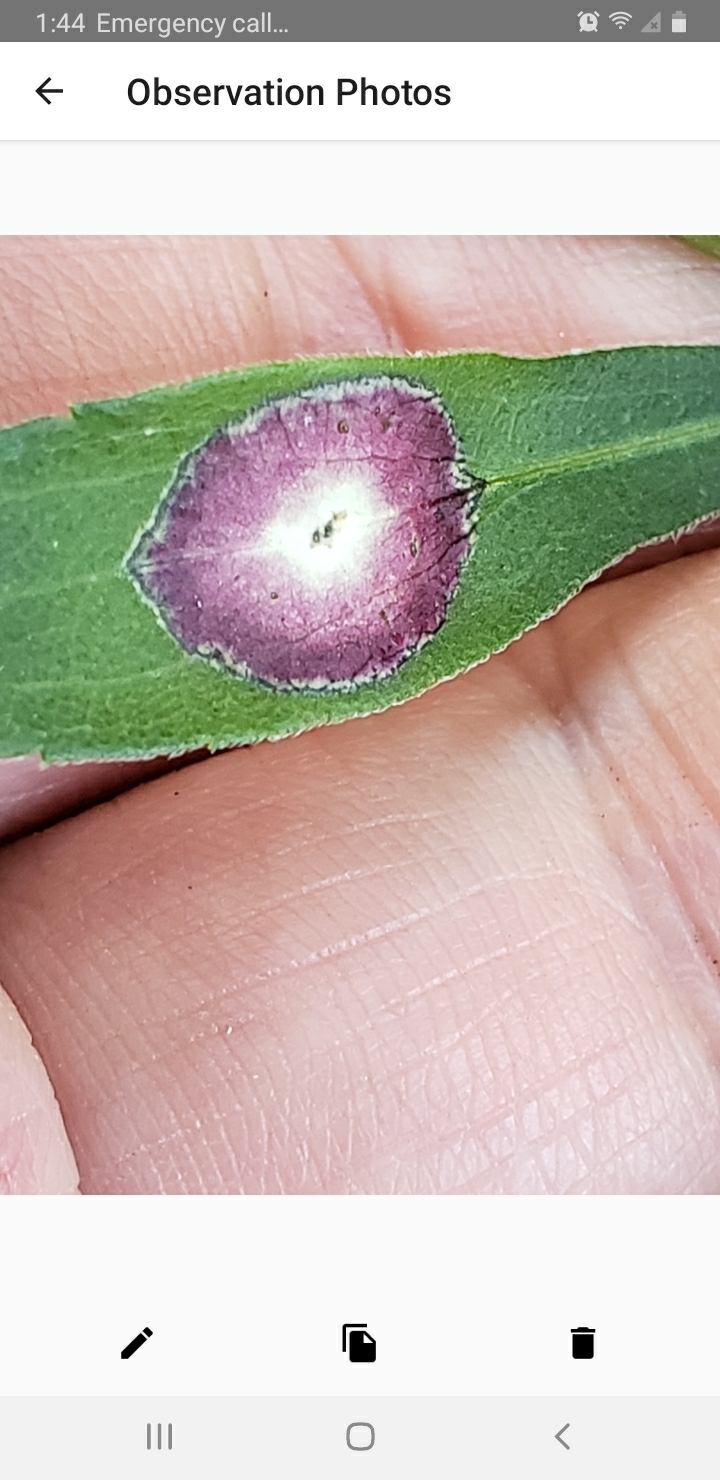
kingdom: Animalia
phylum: Arthropoda
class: Insecta
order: Diptera
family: Cecidomyiidae
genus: Asteromyia
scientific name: Asteromyia carbonifera
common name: Carbonifera goldenrod gall midge
